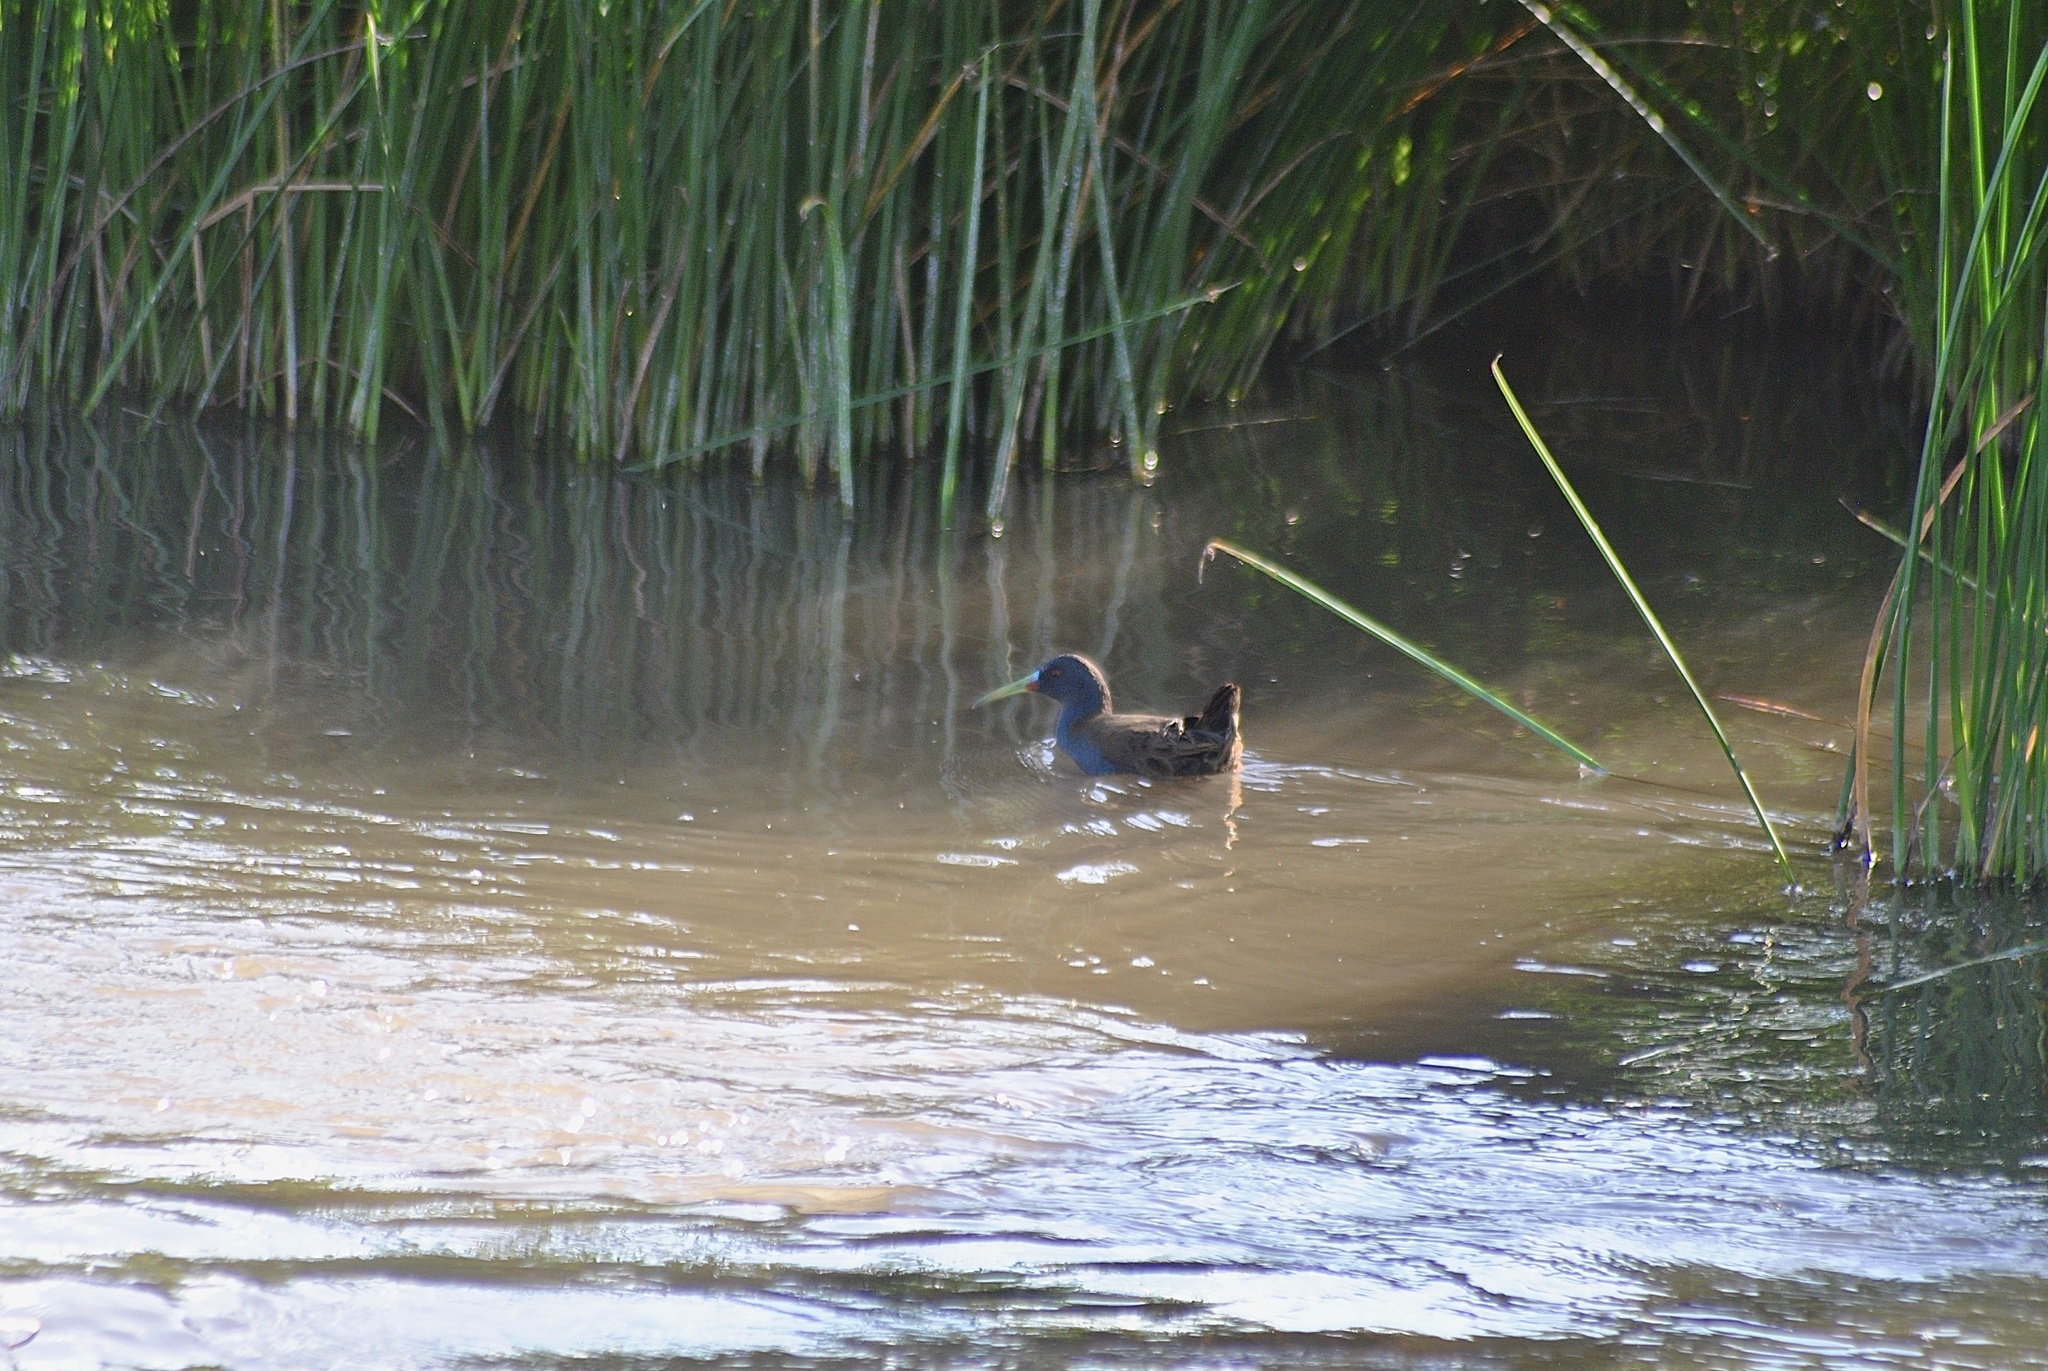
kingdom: Animalia
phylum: Chordata
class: Aves
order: Gruiformes
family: Rallidae
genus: Pardirallus
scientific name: Pardirallus sanguinolentus
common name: Plumbeous rail
